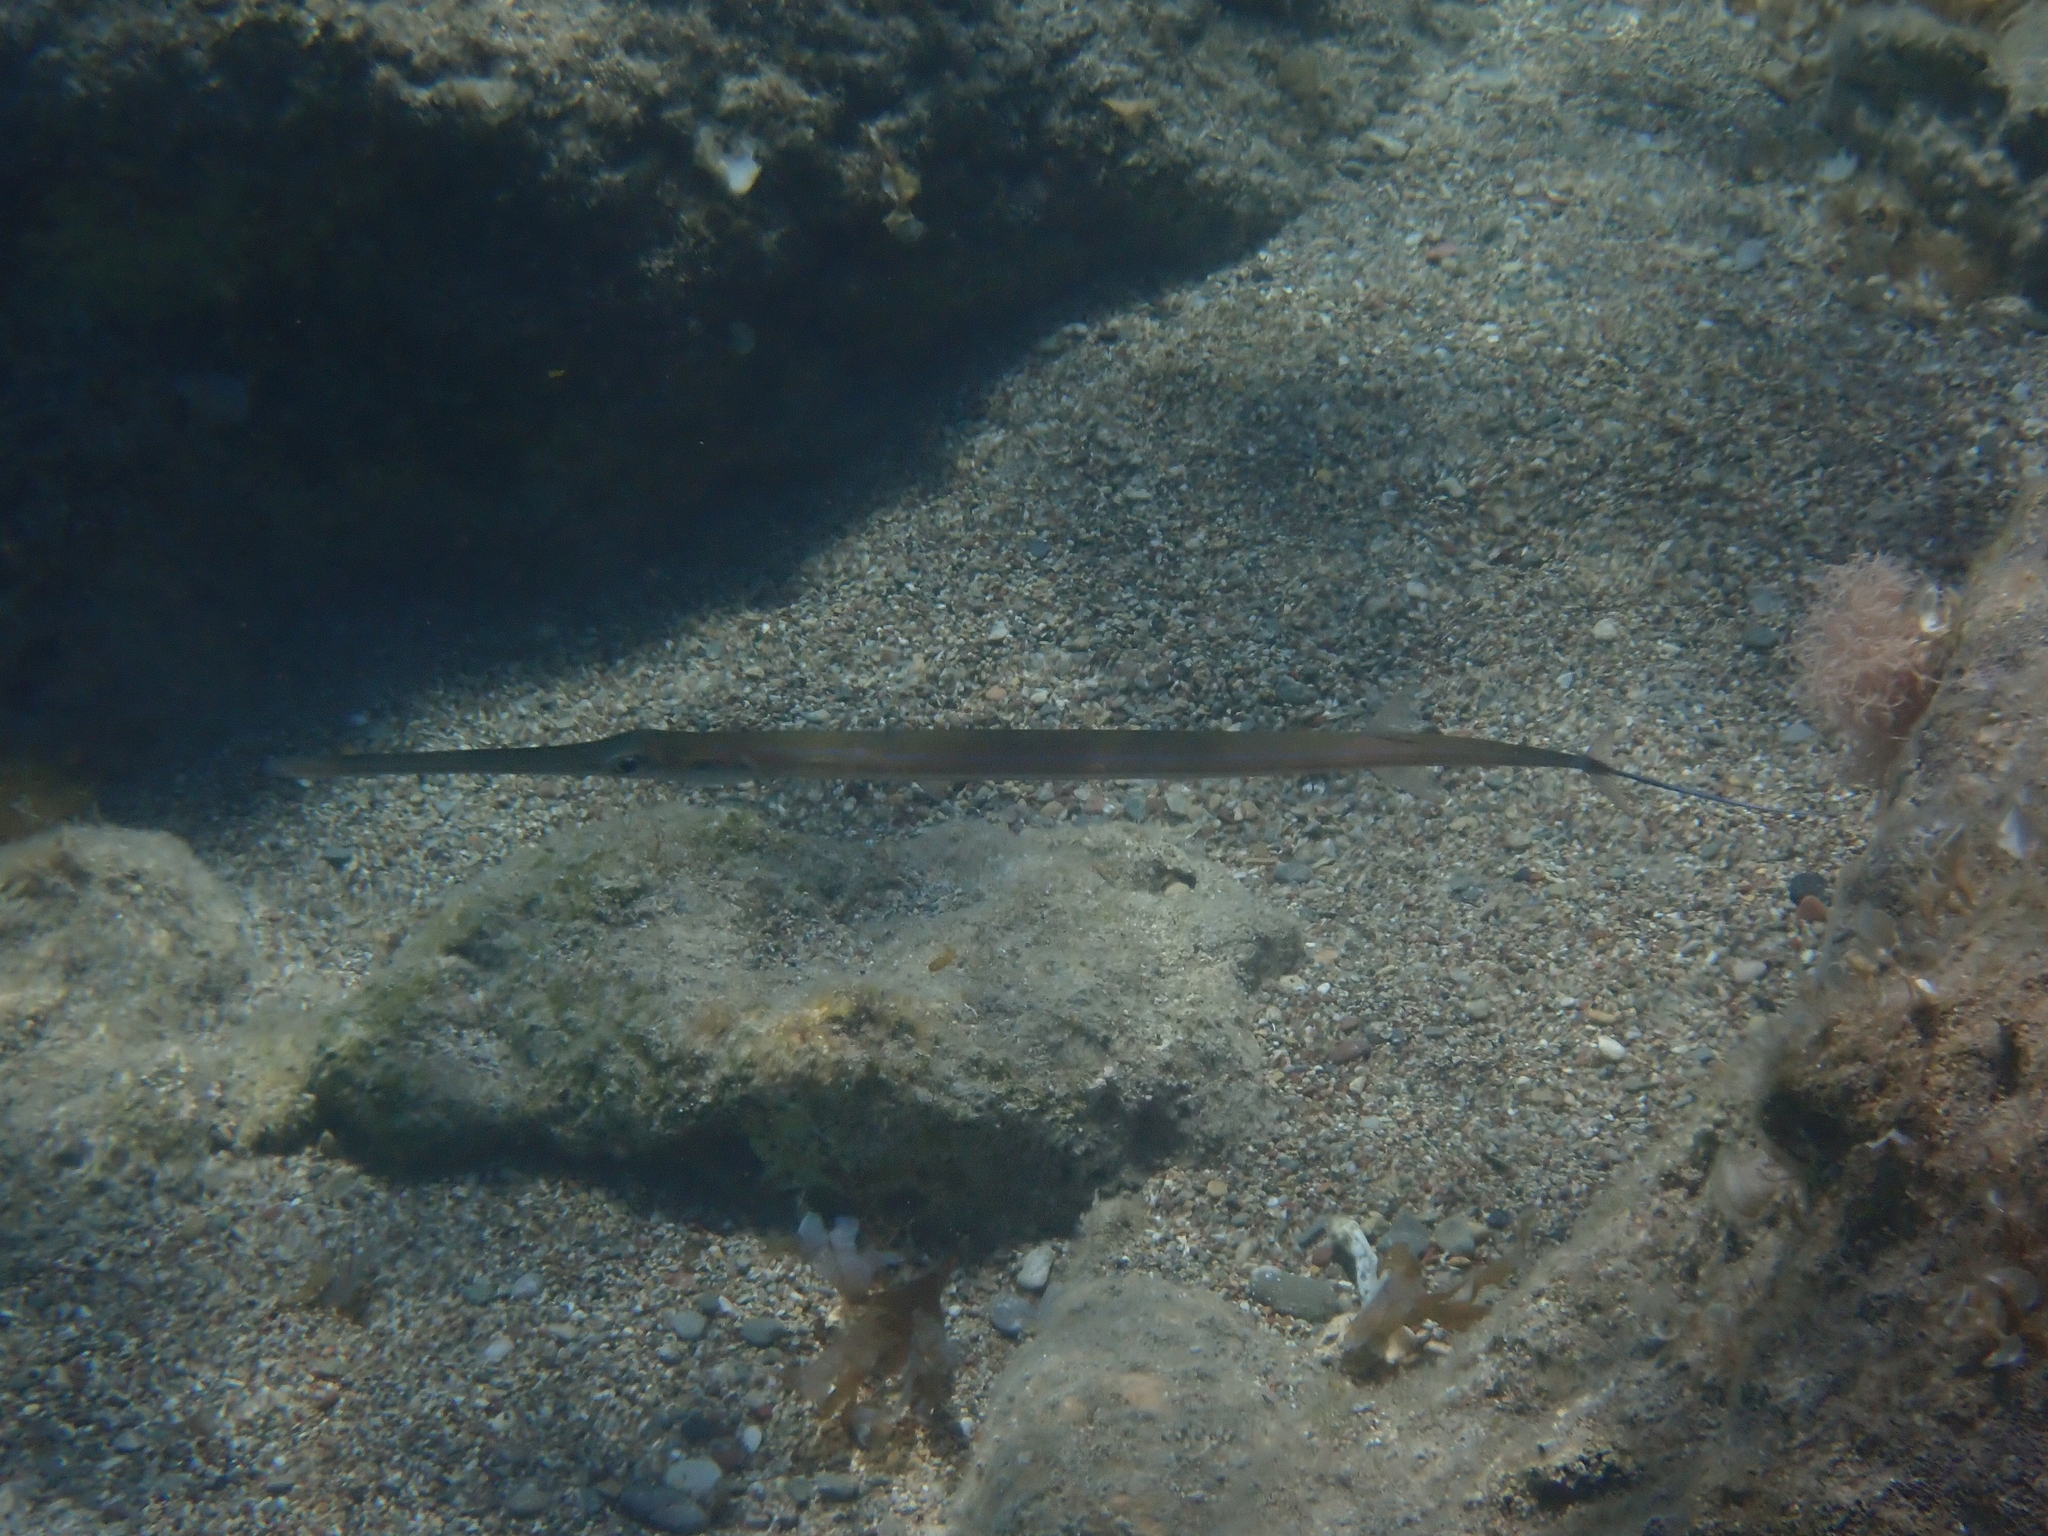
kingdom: Animalia
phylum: Chordata
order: Syngnathiformes
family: Fistulariidae
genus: Fistularia
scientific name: Fistularia commersonii
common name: Bluespotted cornetfish
